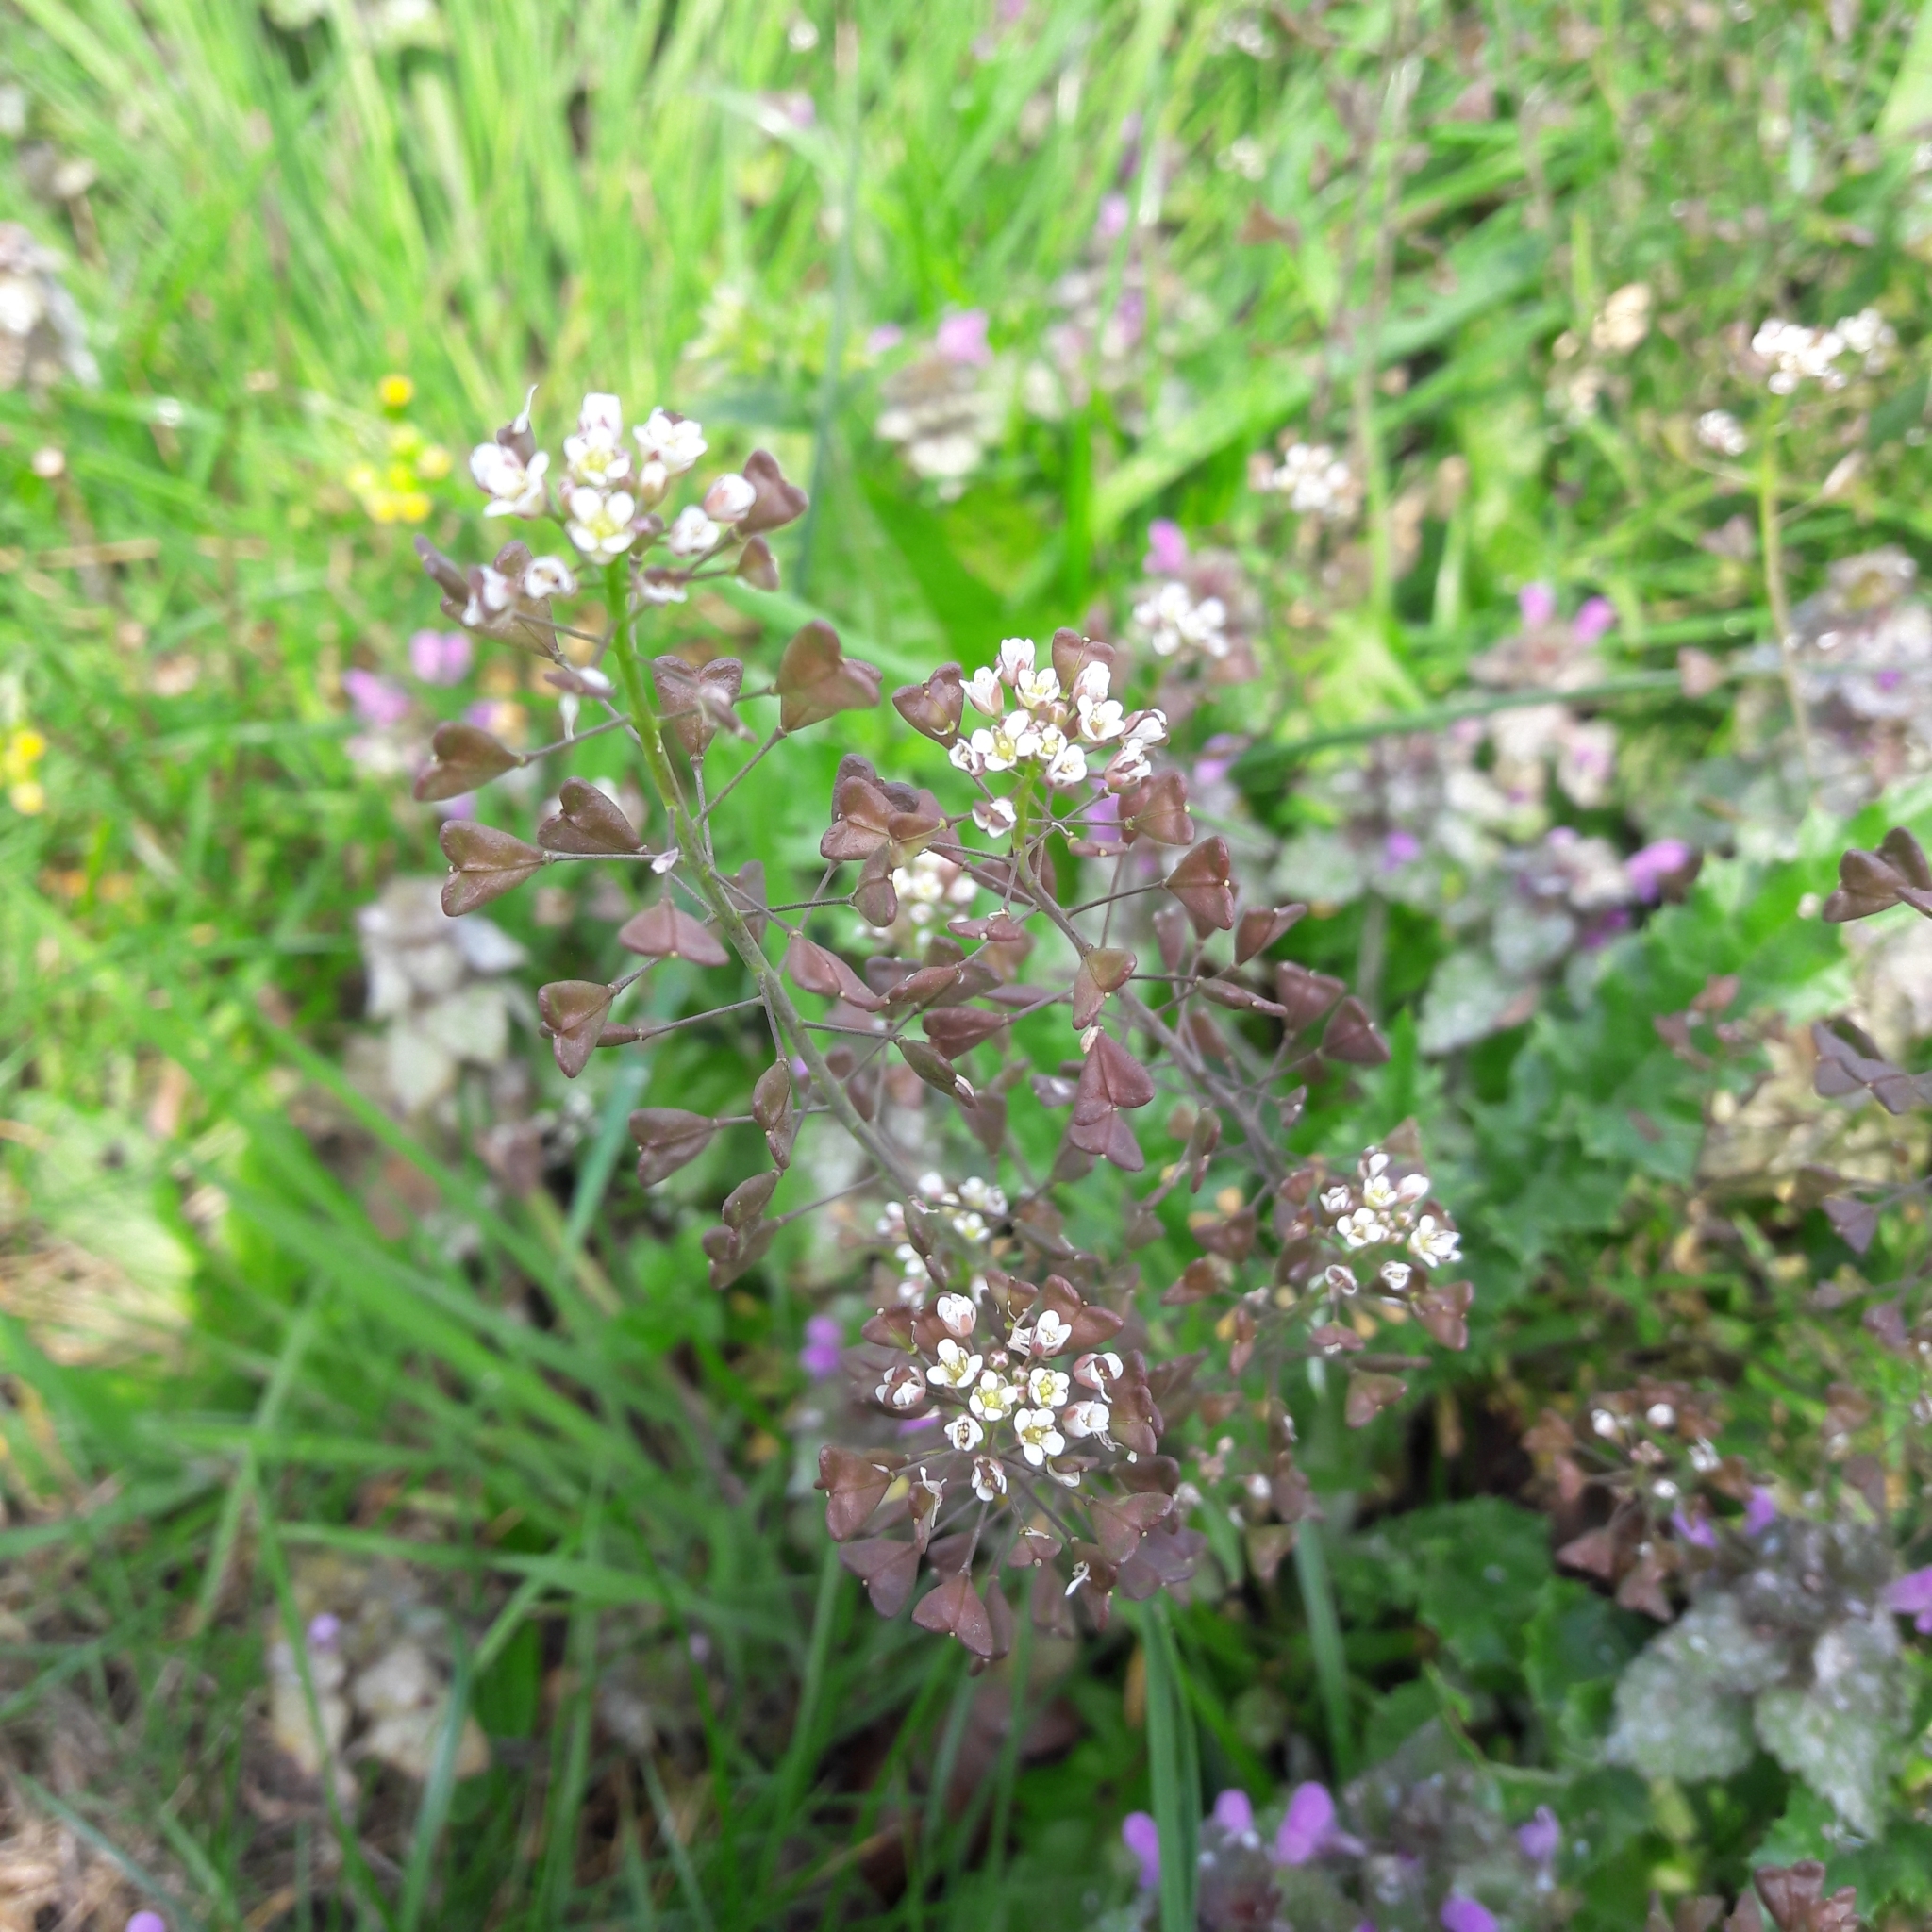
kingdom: Plantae
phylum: Tracheophyta
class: Magnoliopsida
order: Brassicales
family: Brassicaceae
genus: Capsella
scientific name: Capsella bursa-pastoris
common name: Shepherd's purse
